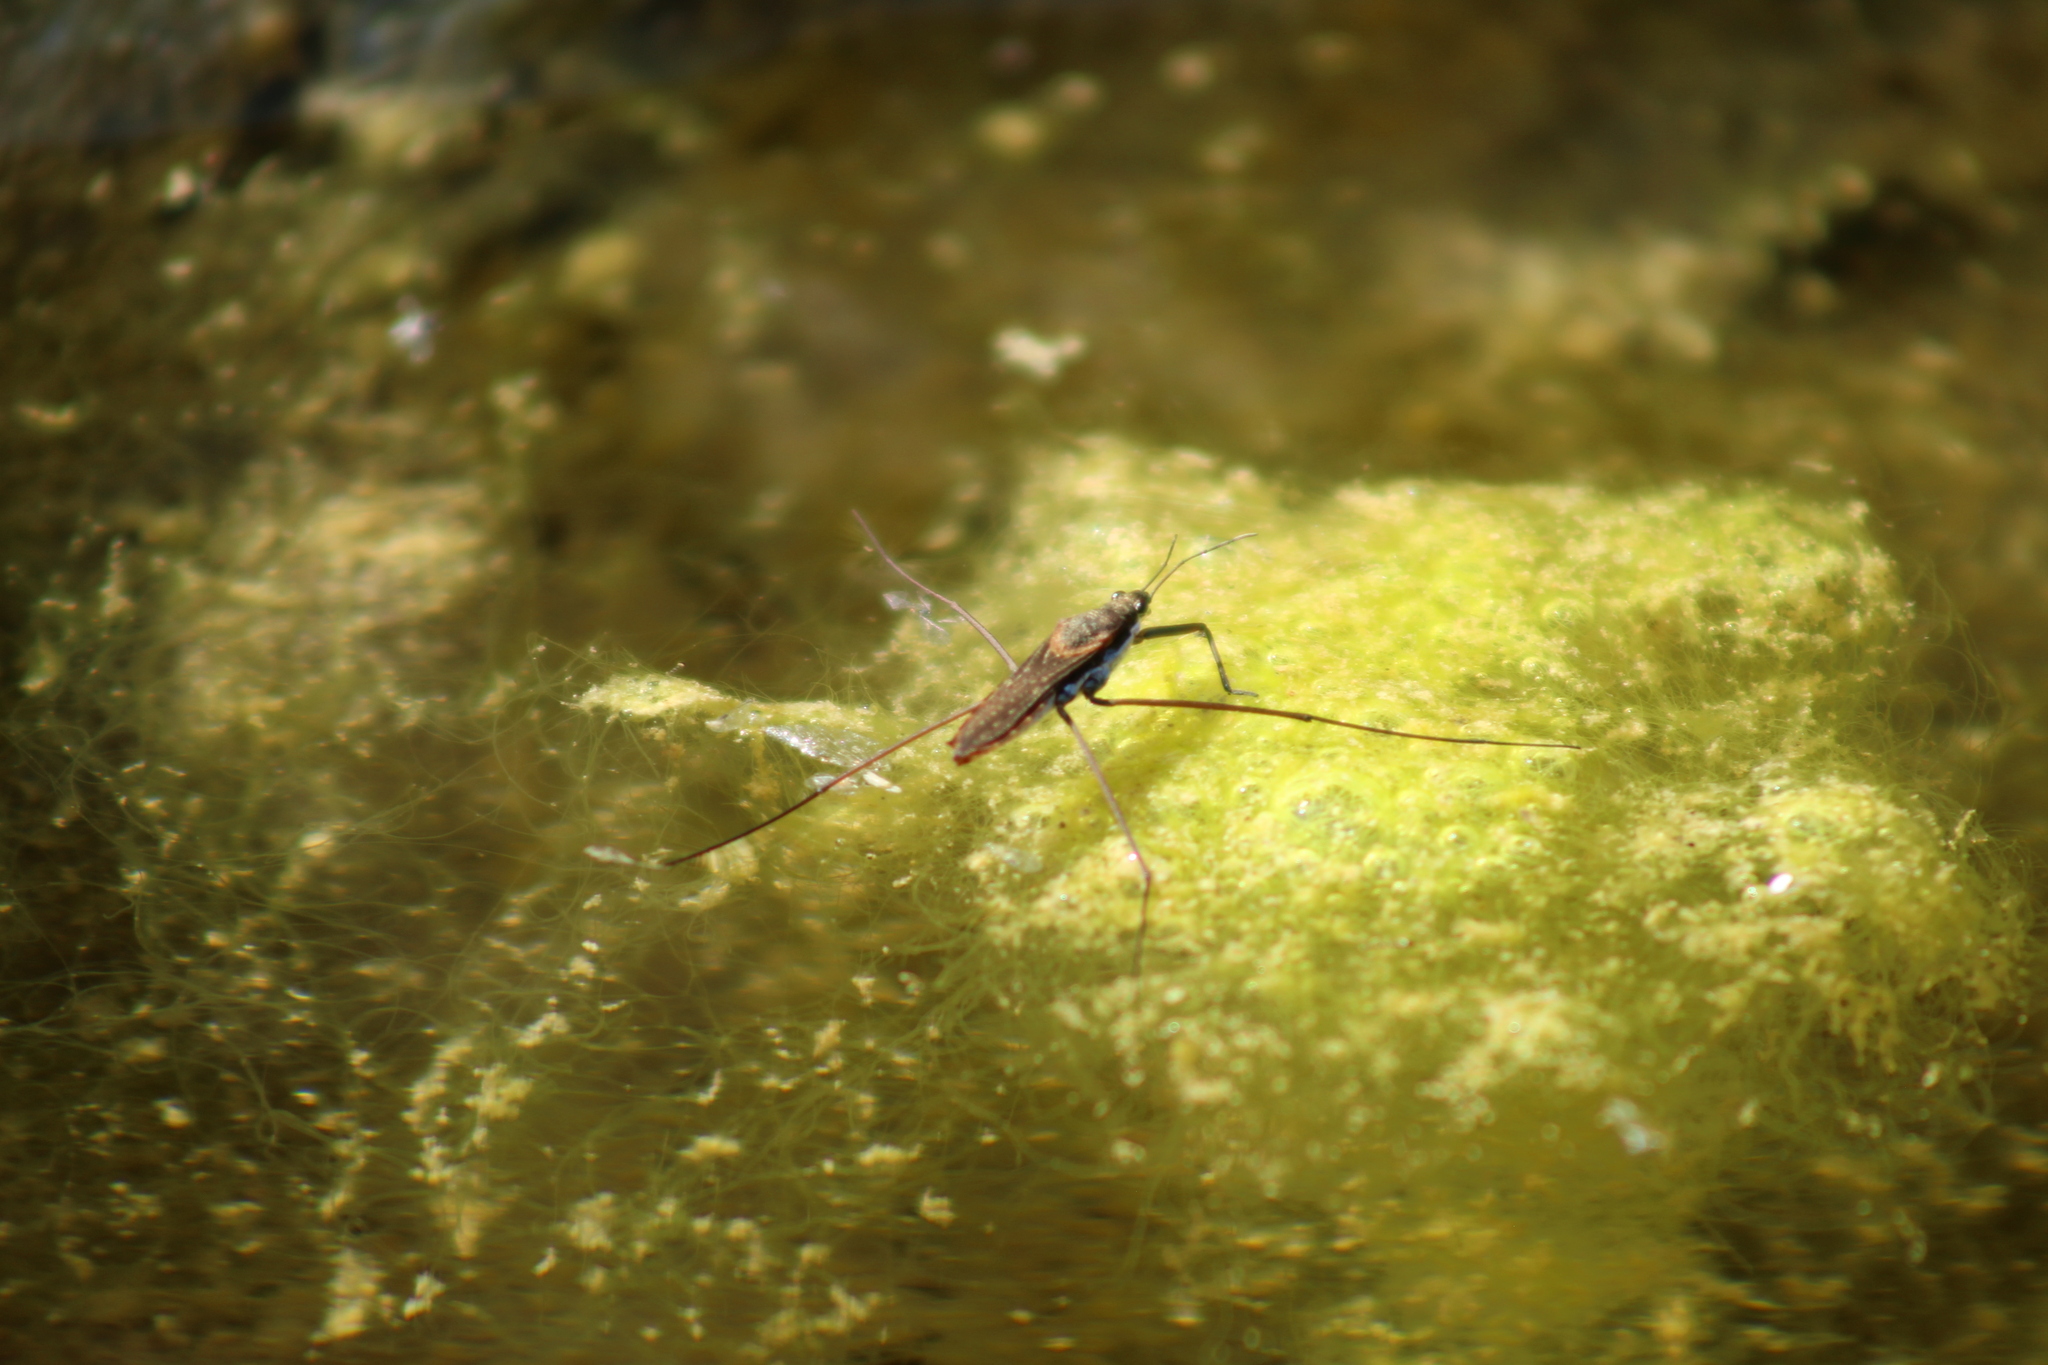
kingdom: Animalia
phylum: Arthropoda
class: Insecta
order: Hemiptera
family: Gerridae
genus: Aquarius
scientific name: Aquarius
